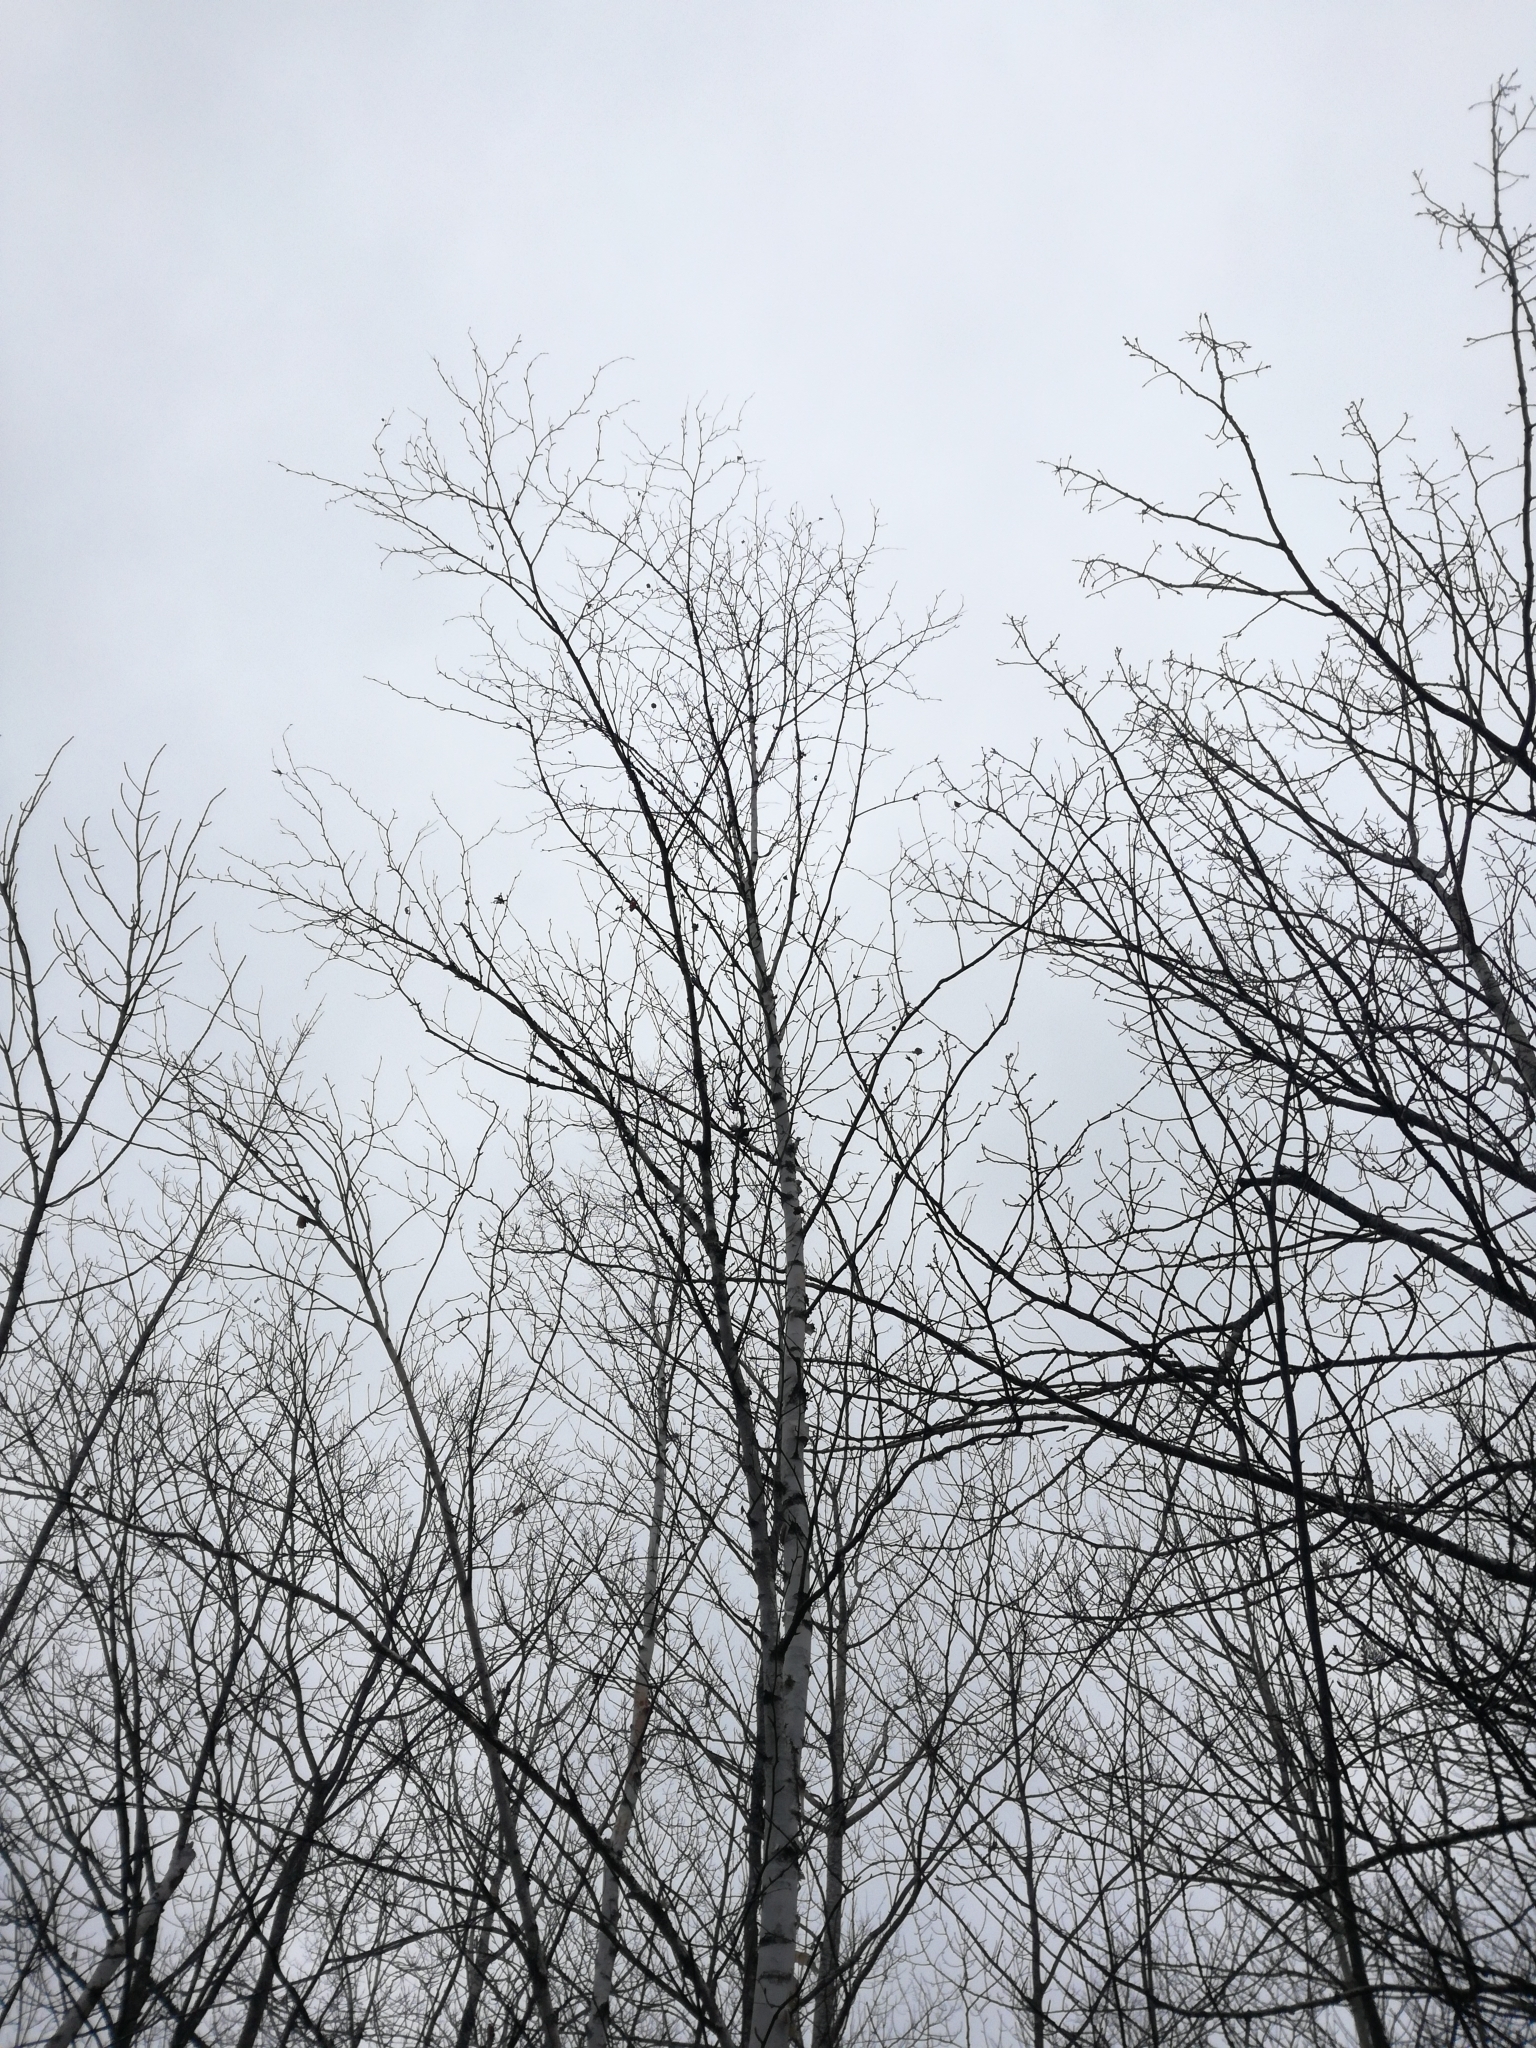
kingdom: Plantae
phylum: Tracheophyta
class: Magnoliopsida
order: Fagales
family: Betulaceae
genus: Betula
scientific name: Betula papyrifera
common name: Paper birch
